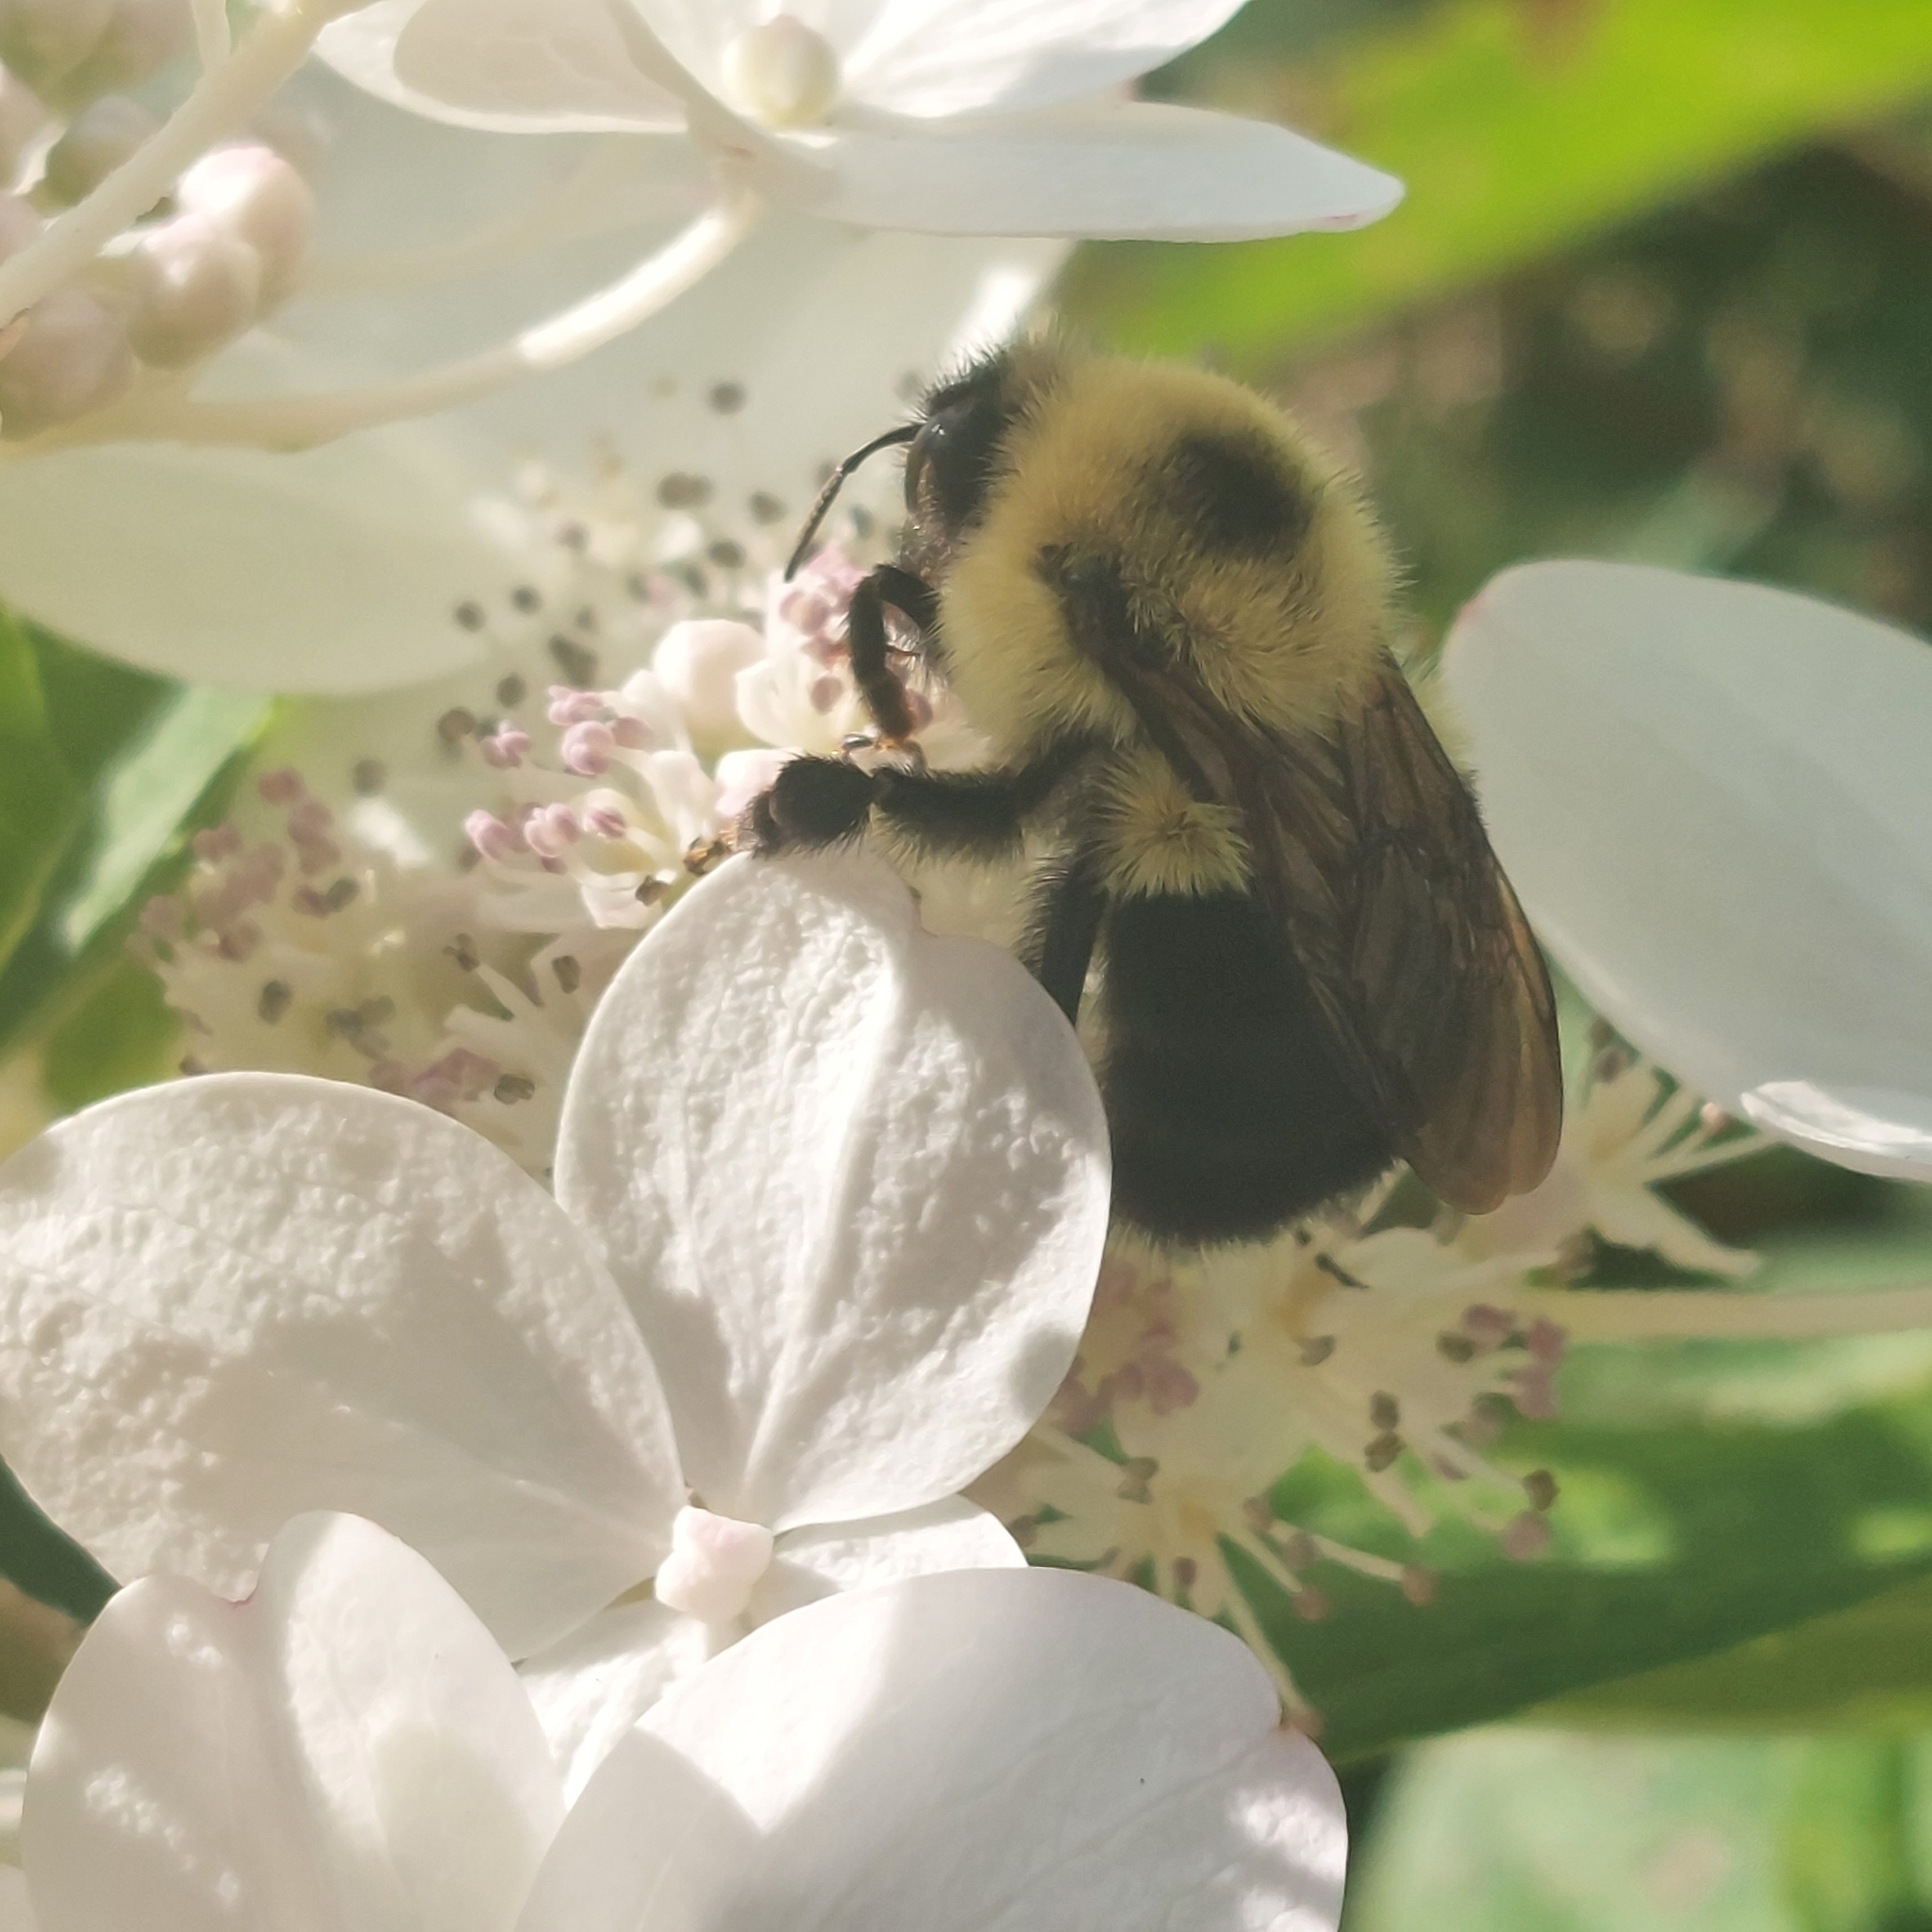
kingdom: Animalia
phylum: Arthropoda
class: Insecta
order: Hymenoptera
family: Apidae
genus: Bombus
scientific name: Bombus bimaculatus
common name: Two-spotted bumble bee
